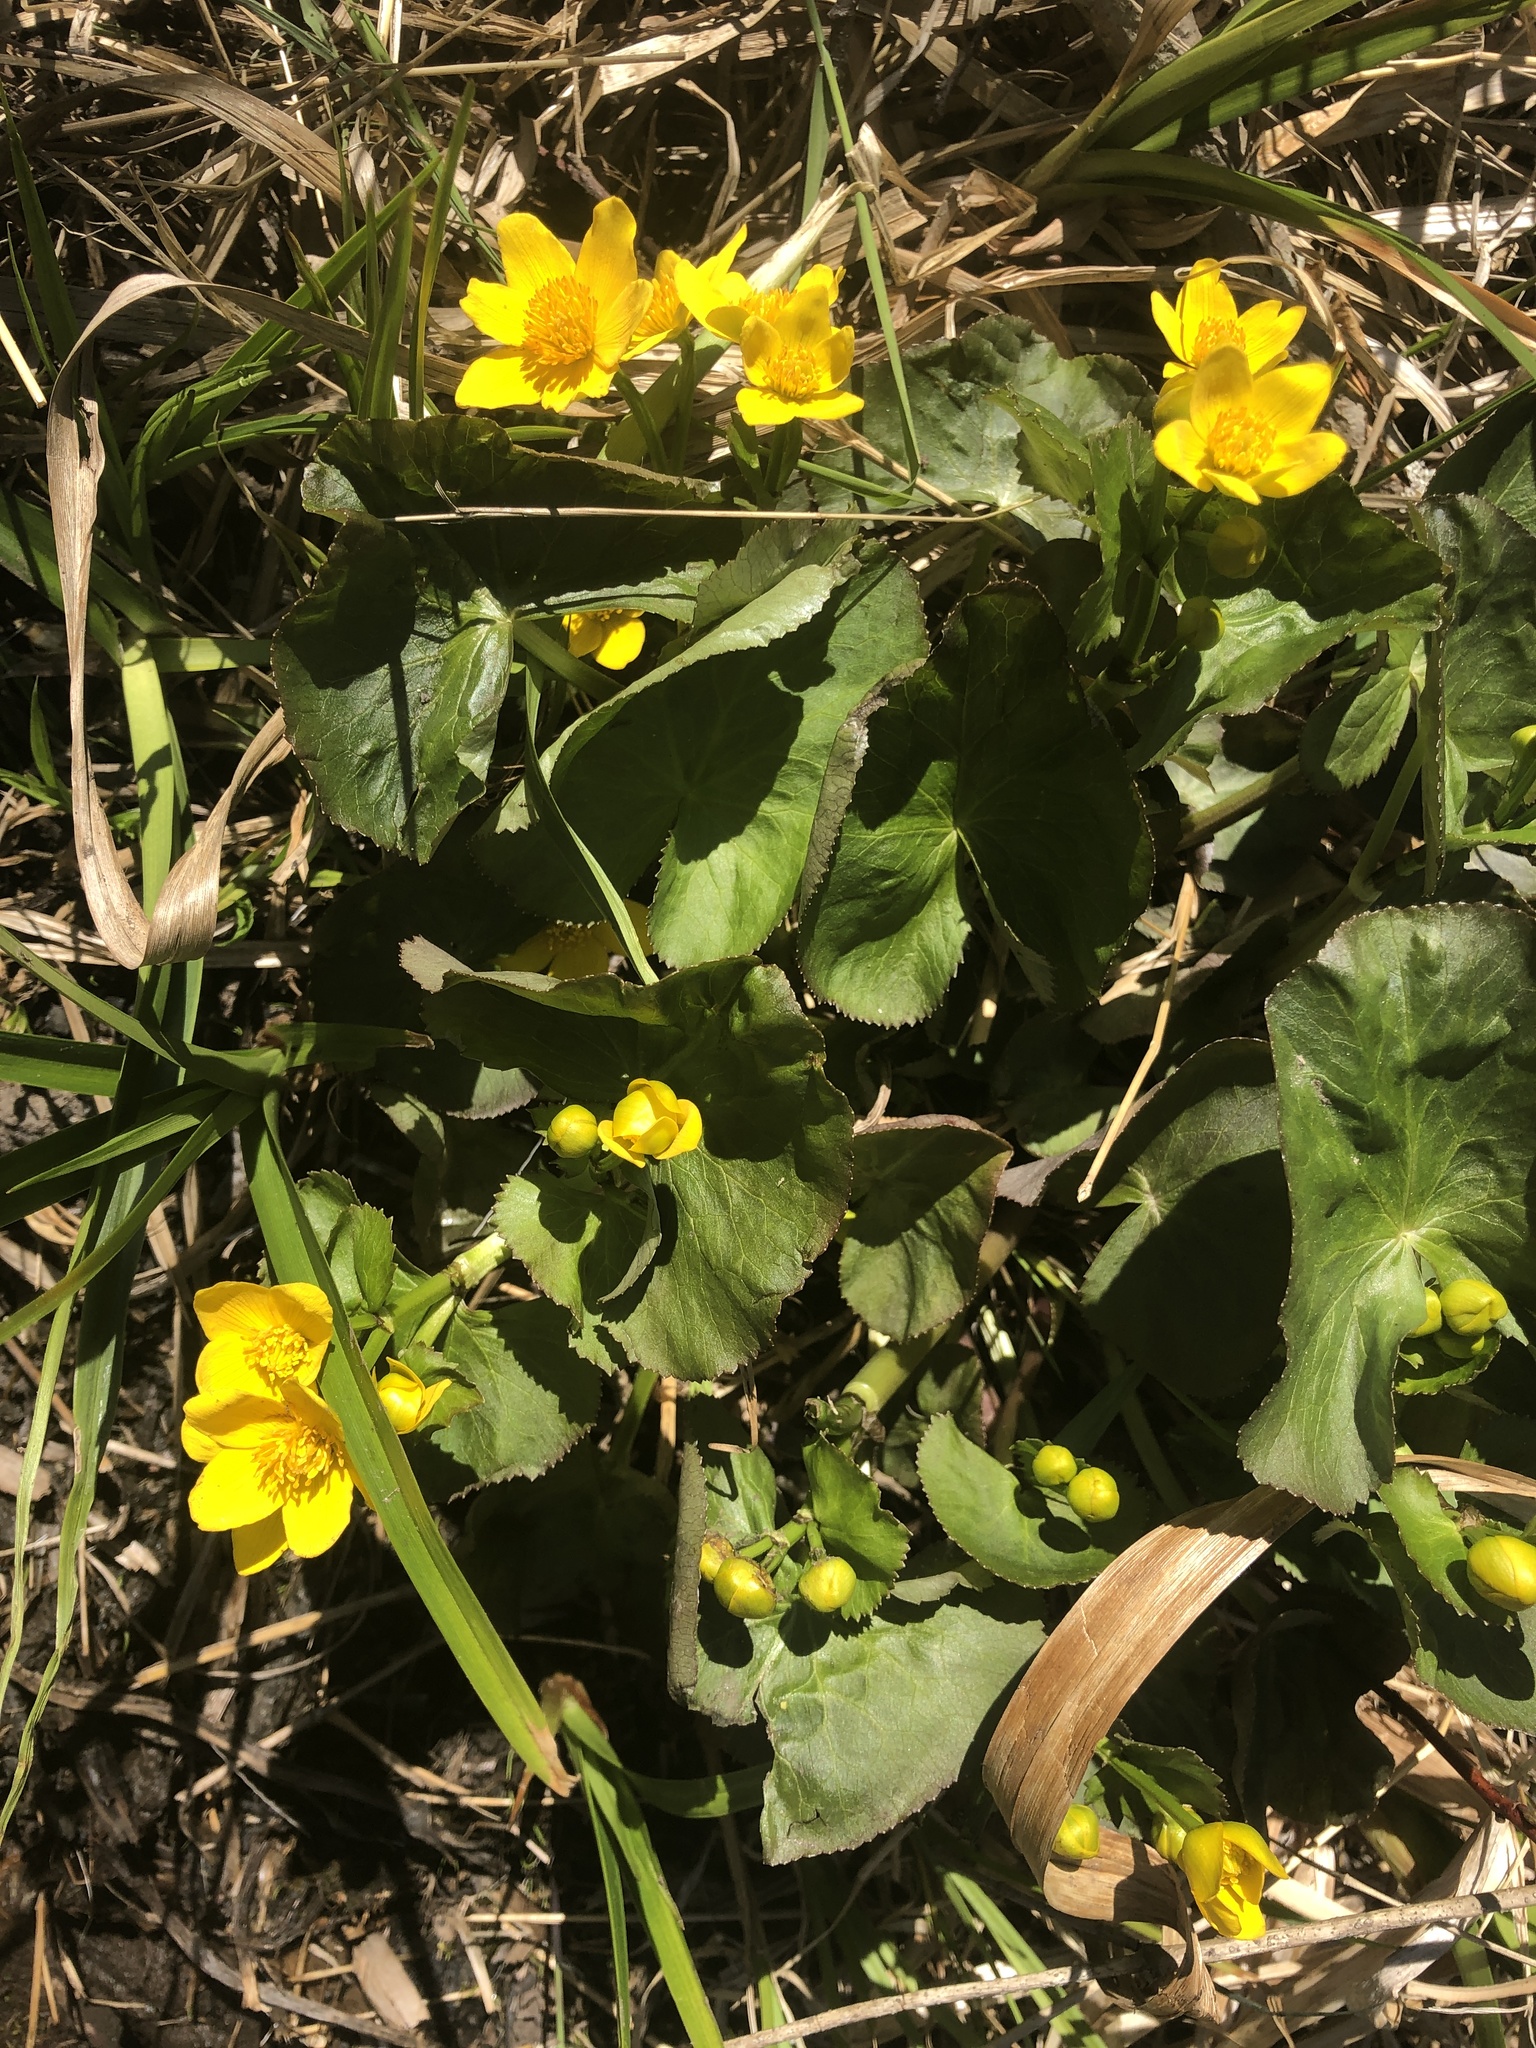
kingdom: Plantae
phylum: Tracheophyta
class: Magnoliopsida
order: Ranunculales
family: Ranunculaceae
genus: Caltha
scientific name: Caltha palustris
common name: Marsh marigold
